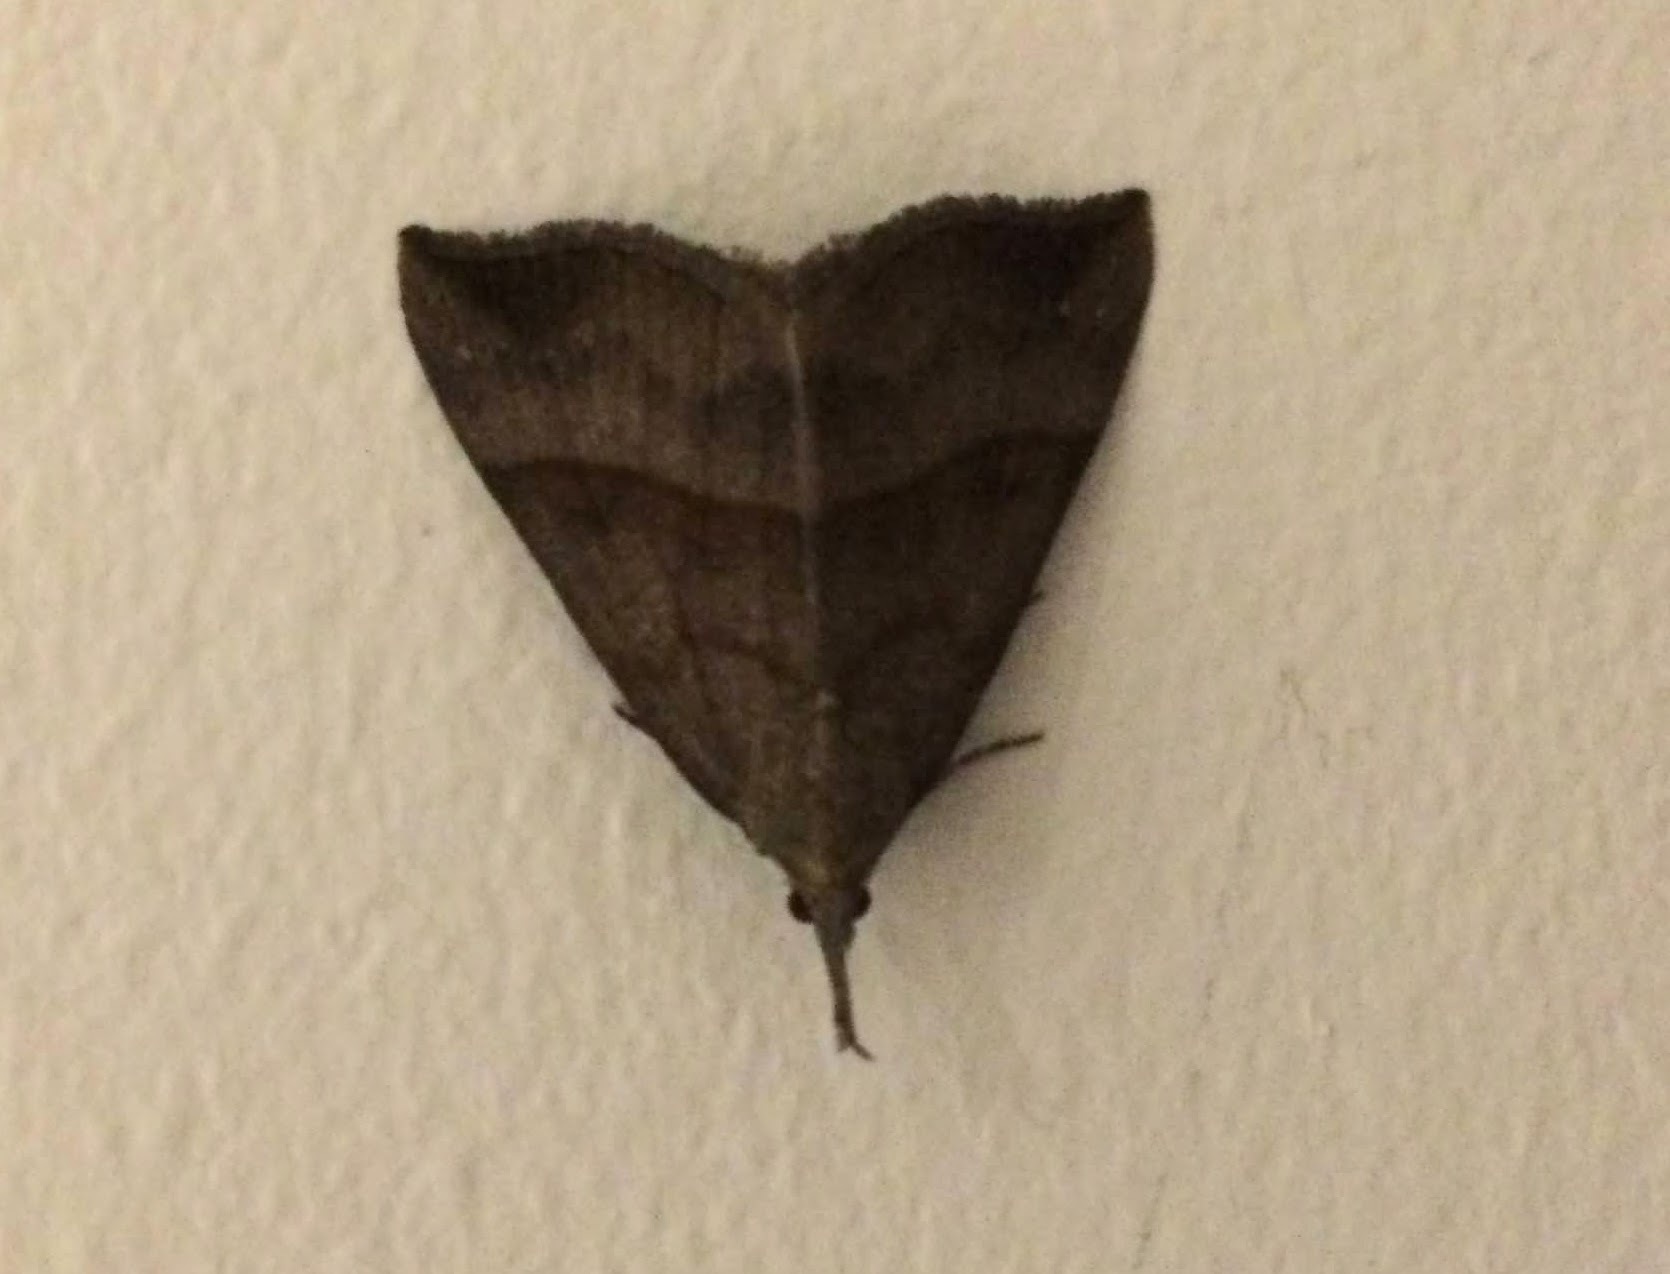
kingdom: Animalia
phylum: Arthropoda
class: Insecta
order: Lepidoptera
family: Erebidae
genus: Hypena
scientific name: Hypena proboscidalis
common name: Snout
